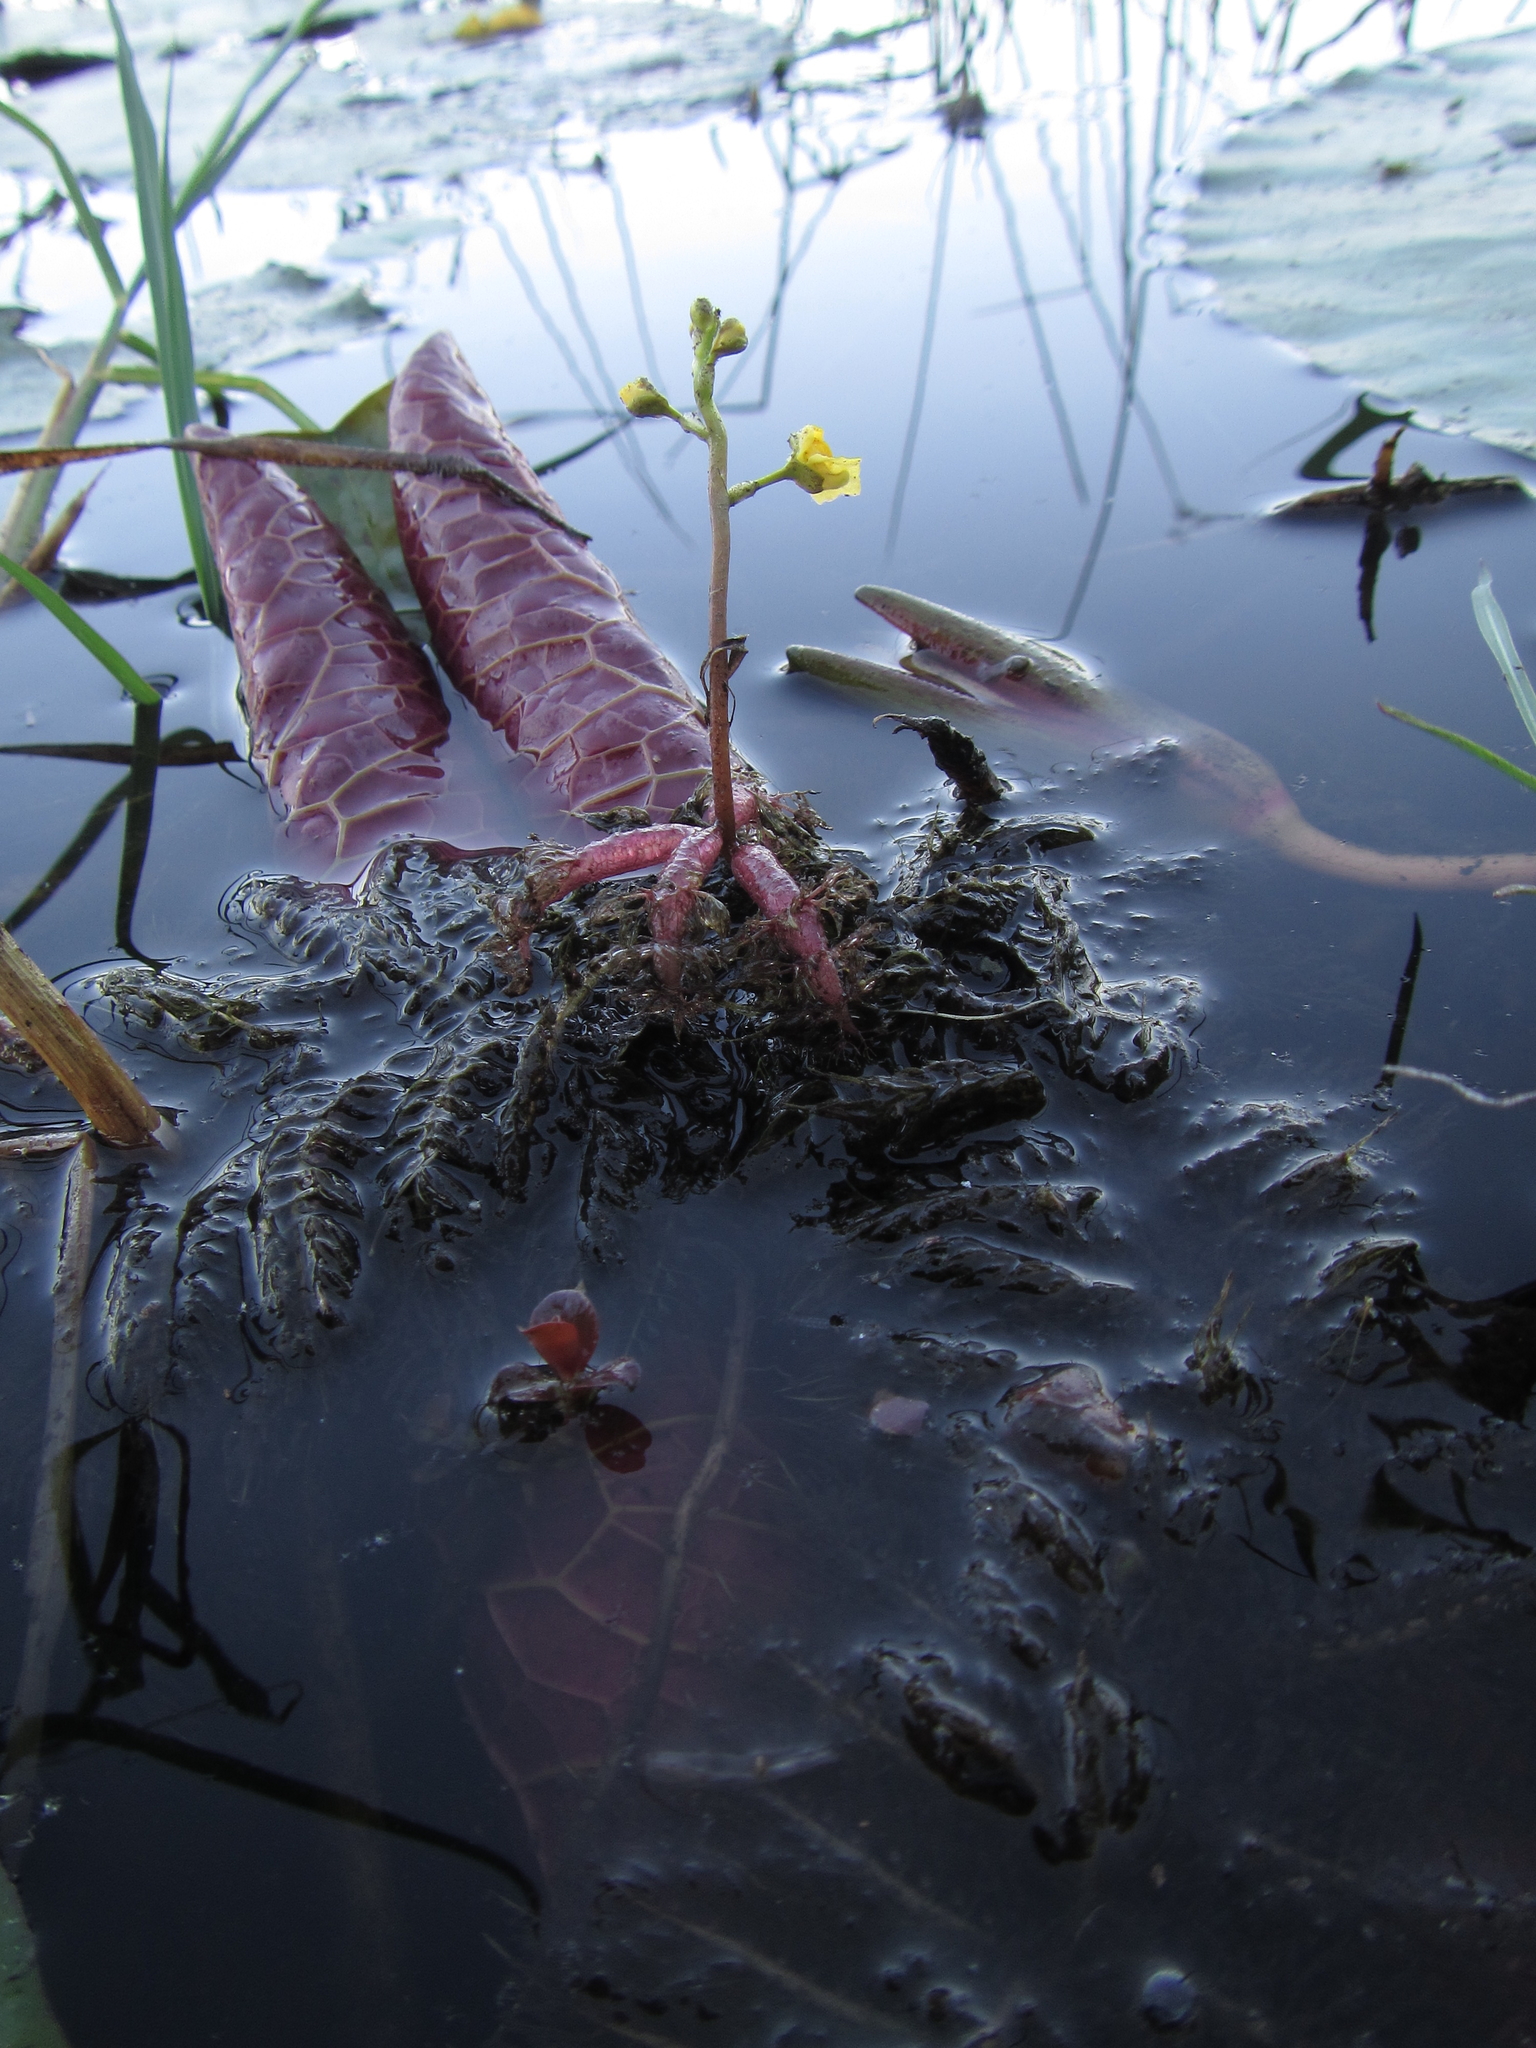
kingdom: Plantae
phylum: Tracheophyta
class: Magnoliopsida
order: Lamiales
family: Lentibulariaceae
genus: Utricularia
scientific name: Utricularia stellaris
